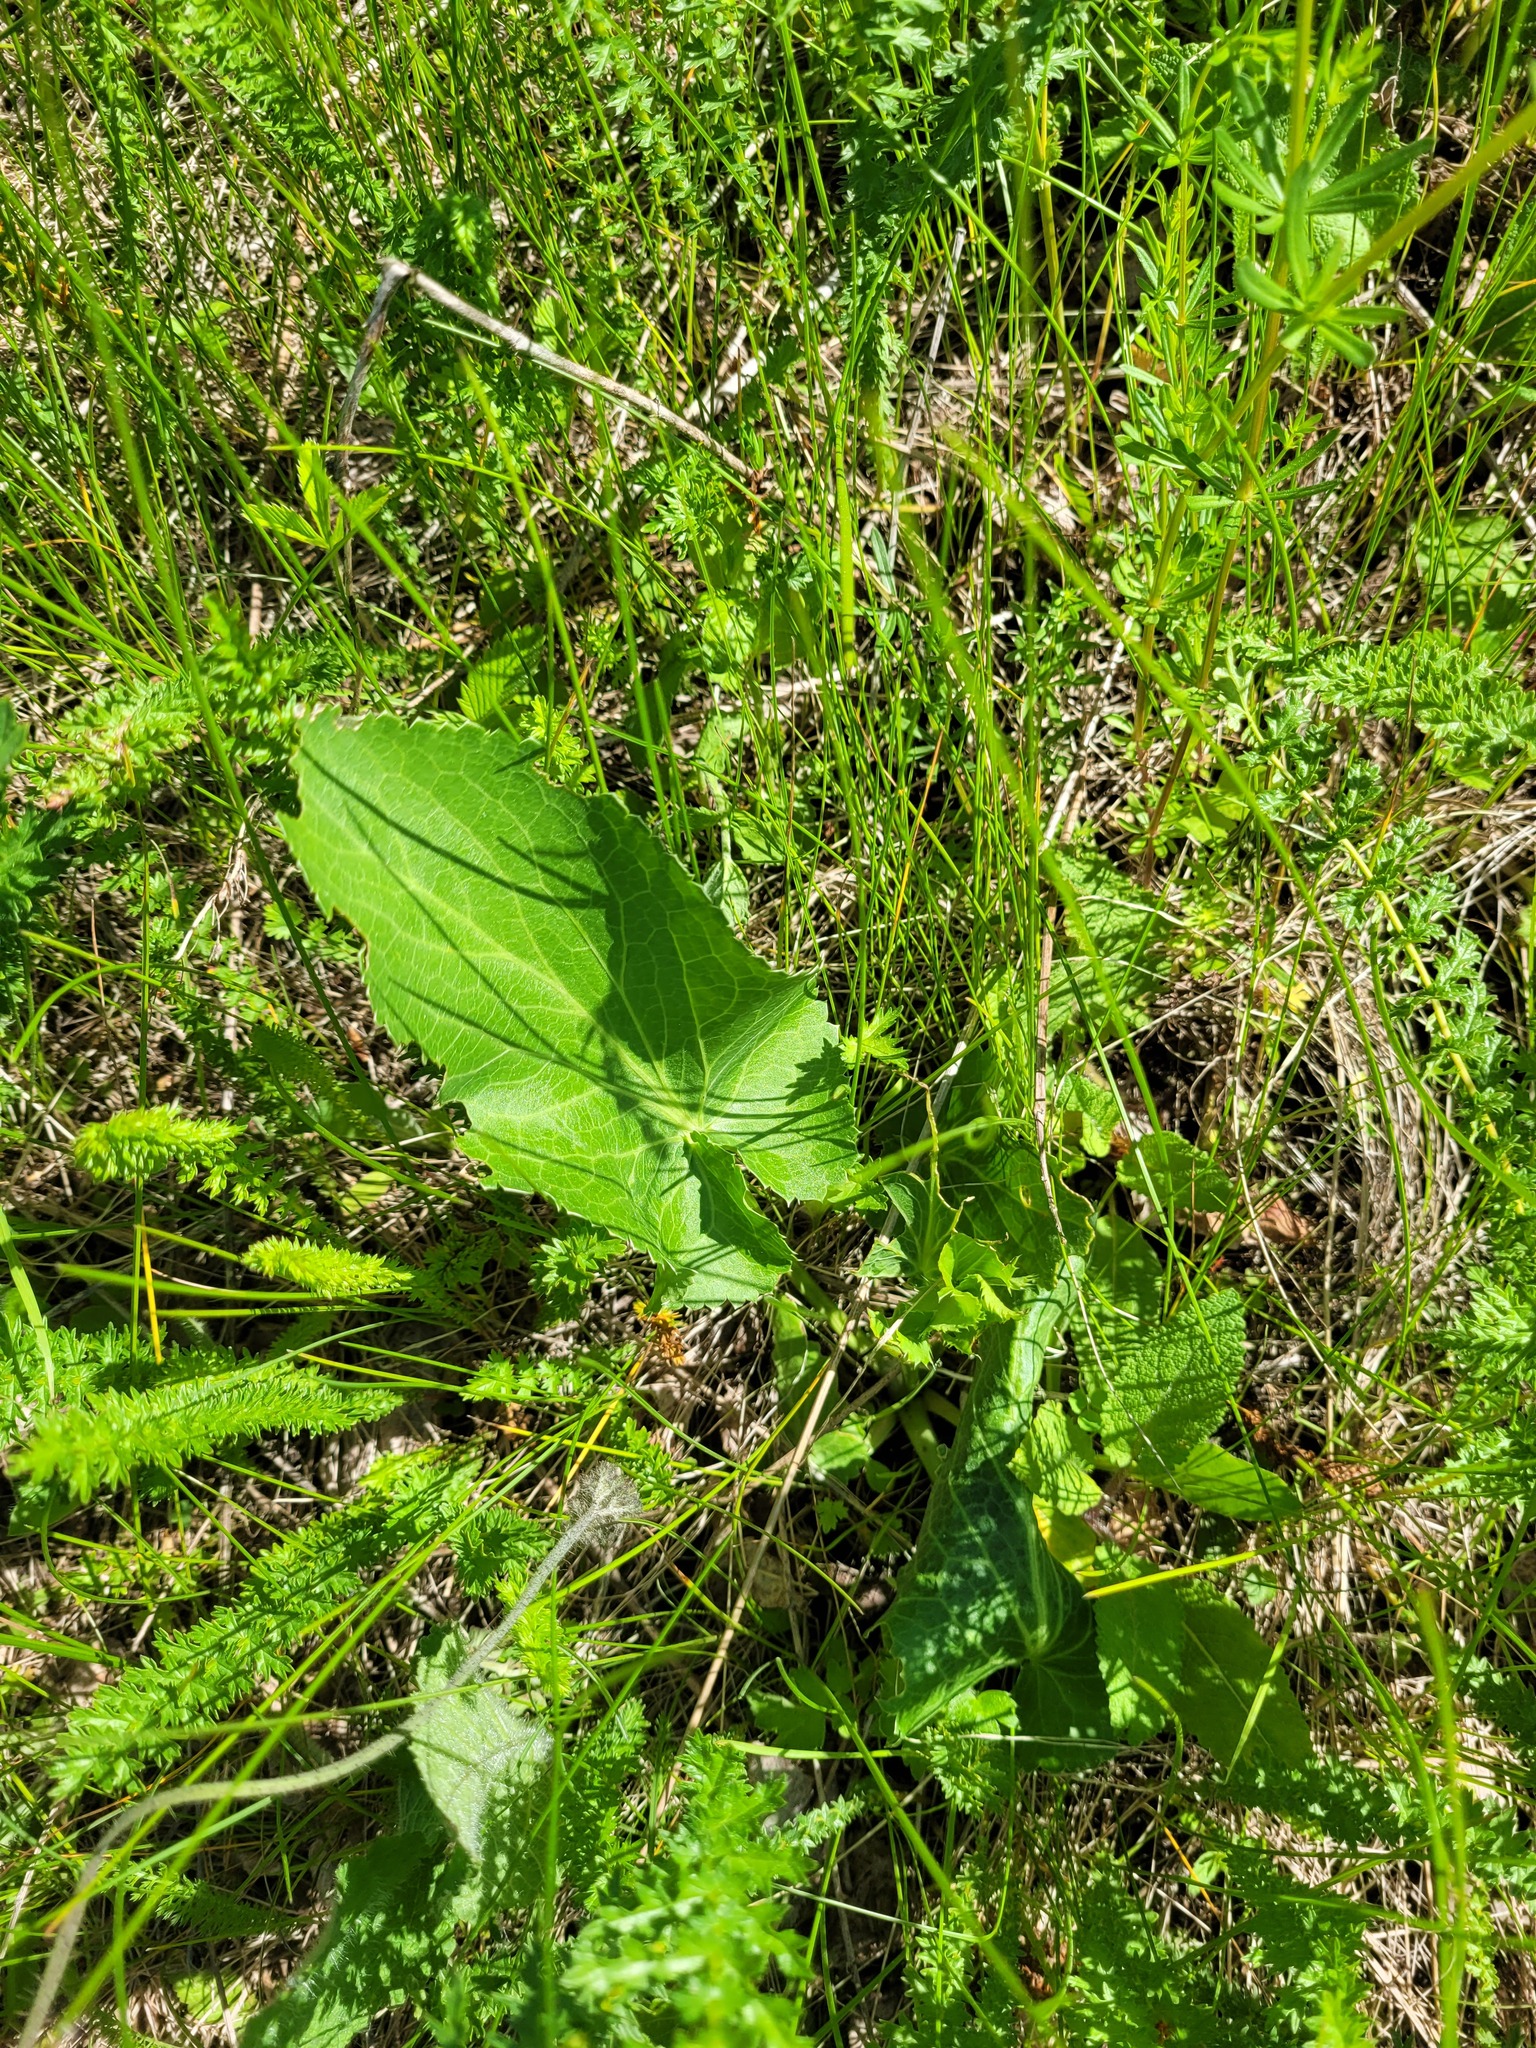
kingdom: Plantae
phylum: Tracheophyta
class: Magnoliopsida
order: Apiales
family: Apiaceae
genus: Eryngium
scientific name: Eryngium planum
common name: Blue eryngo
